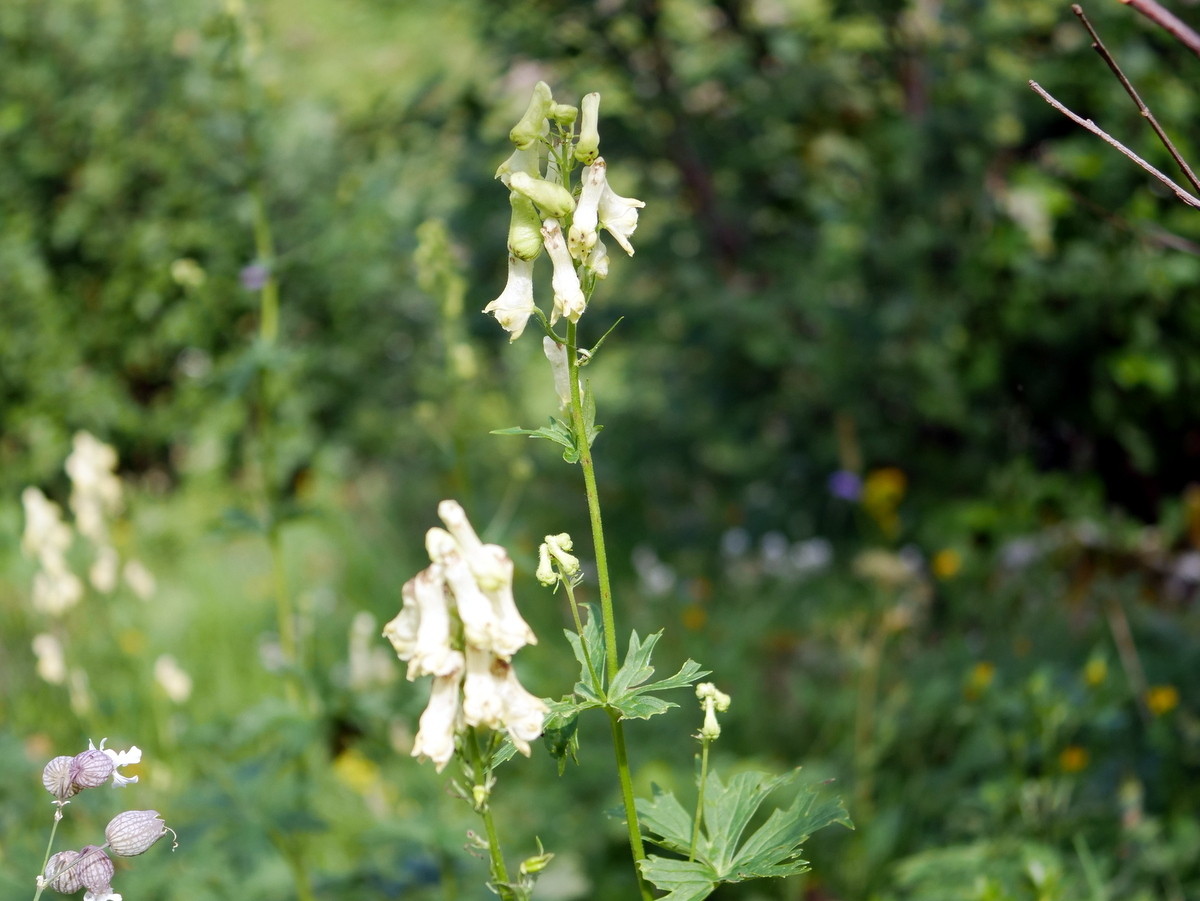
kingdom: Plantae
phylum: Tracheophyta
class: Magnoliopsida
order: Ranunculales
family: Ranunculaceae
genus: Aconitum
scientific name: Aconitum lycoctonum
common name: Wolf's-bane
